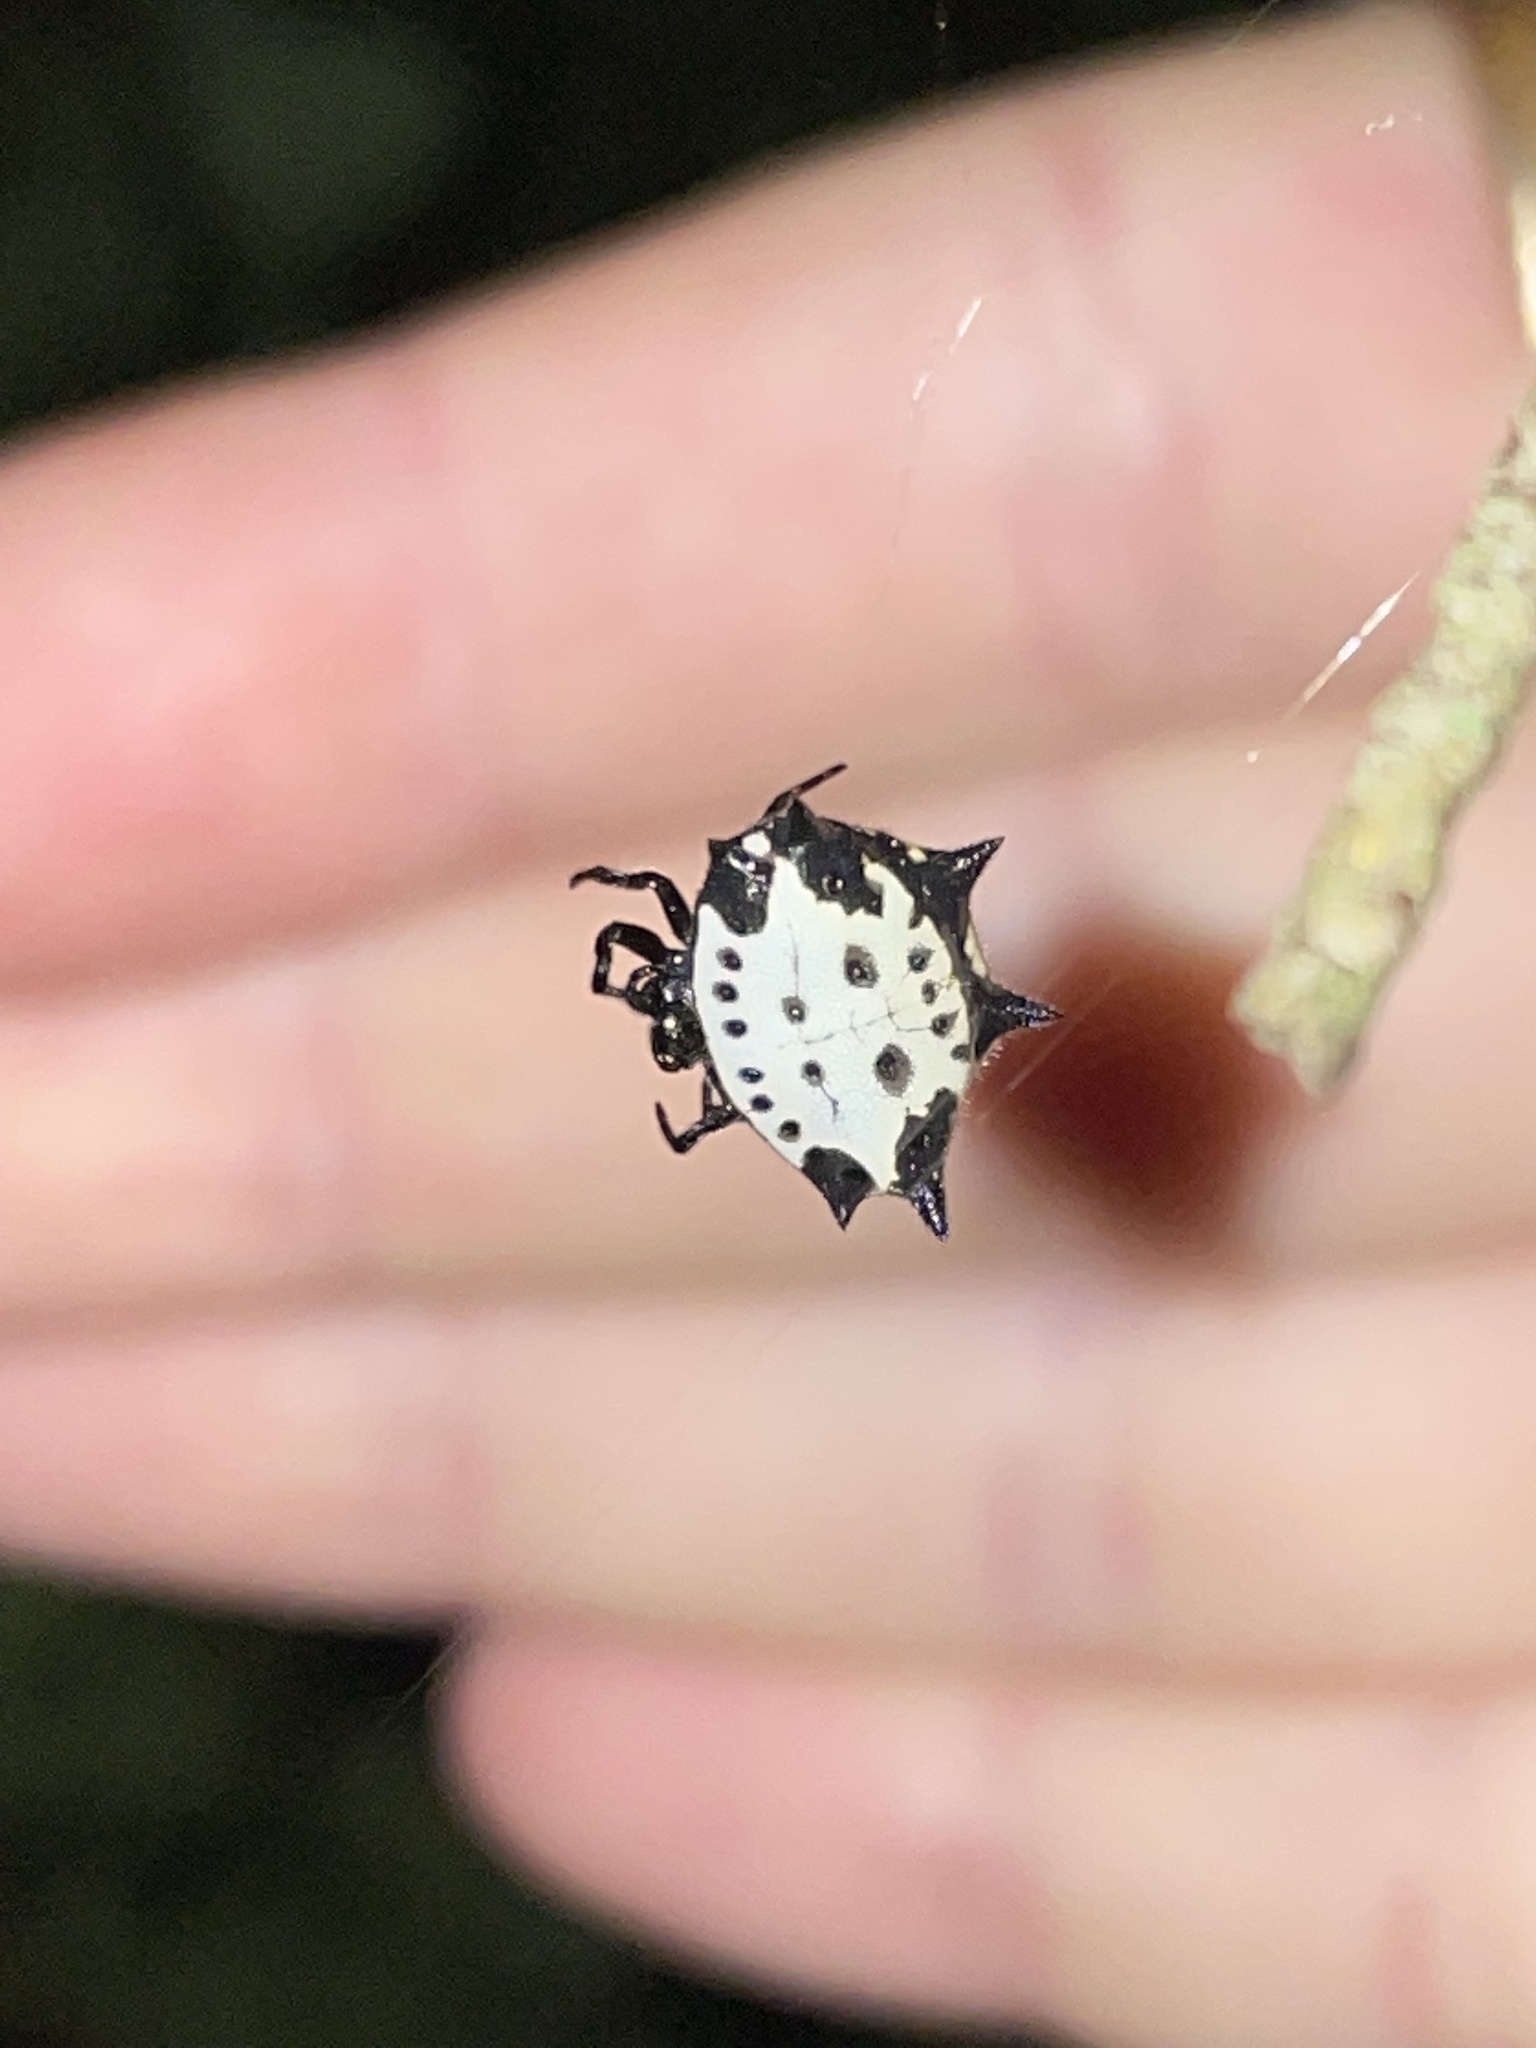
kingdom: Animalia
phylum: Arthropoda
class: Arachnida
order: Araneae
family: Araneidae
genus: Gasteracantha
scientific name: Gasteracantha cancriformis
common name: Orb weavers
